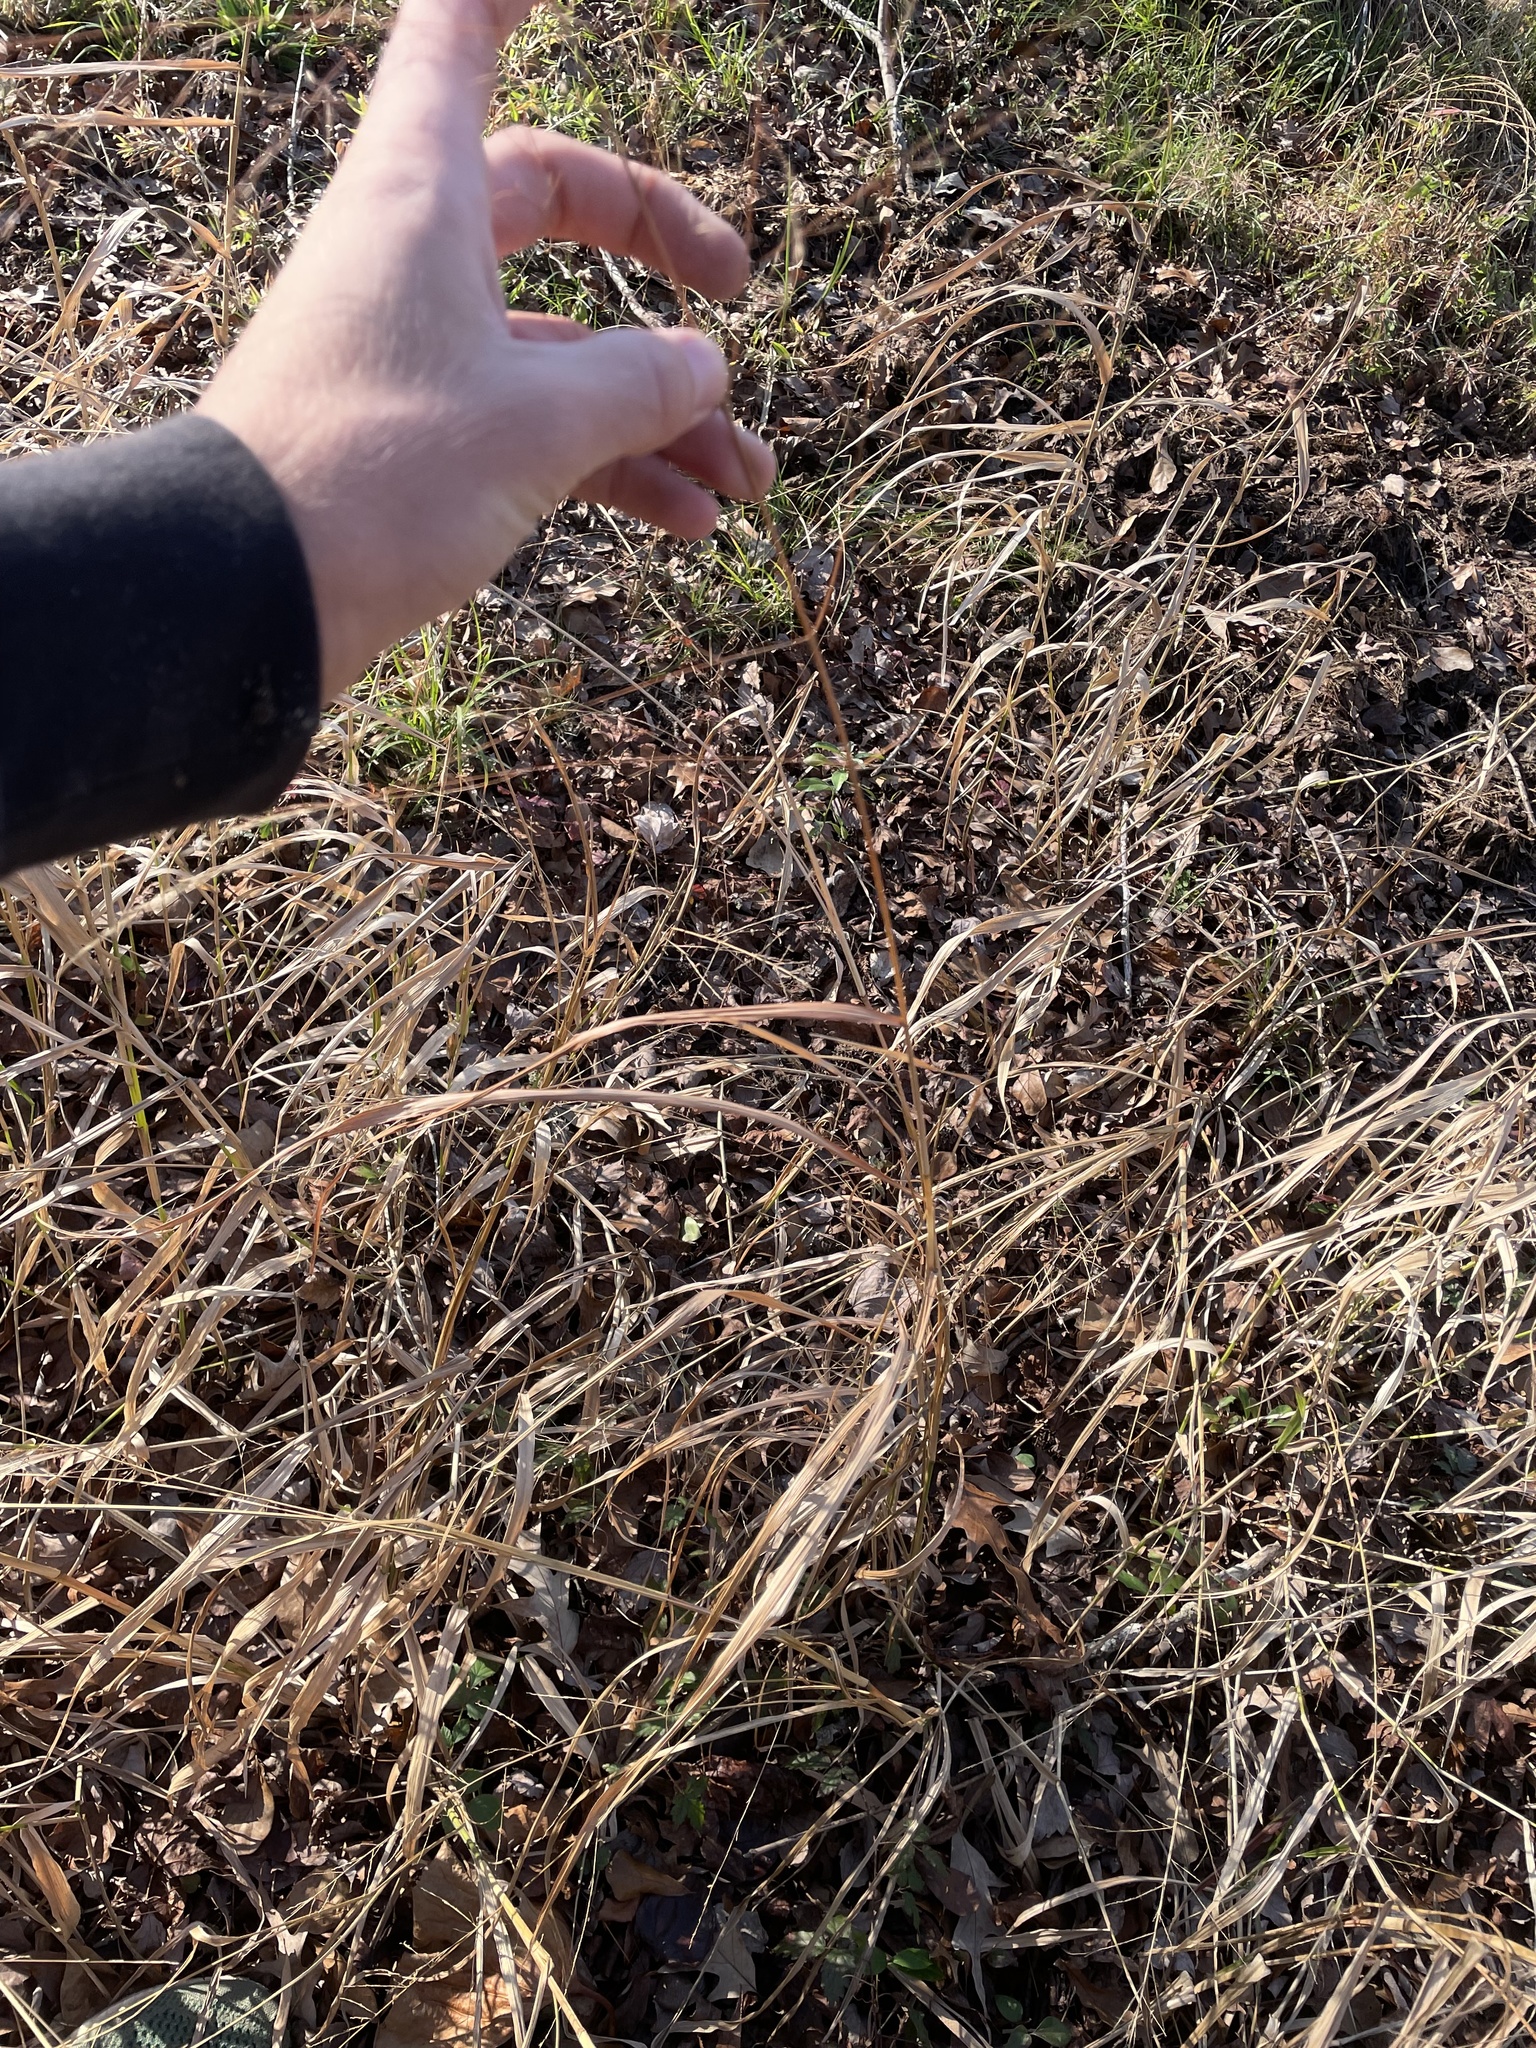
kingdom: Plantae
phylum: Tracheophyta
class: Liliopsida
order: Poales
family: Poaceae
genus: Panicum
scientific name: Panicum virgatum
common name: Switchgrass
